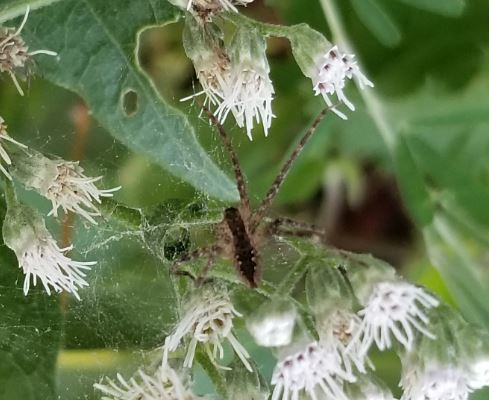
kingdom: Animalia
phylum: Arthropoda
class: Arachnida
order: Araneae
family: Pisauridae
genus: Pisaurina
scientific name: Pisaurina mira
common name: American nursery web spider
